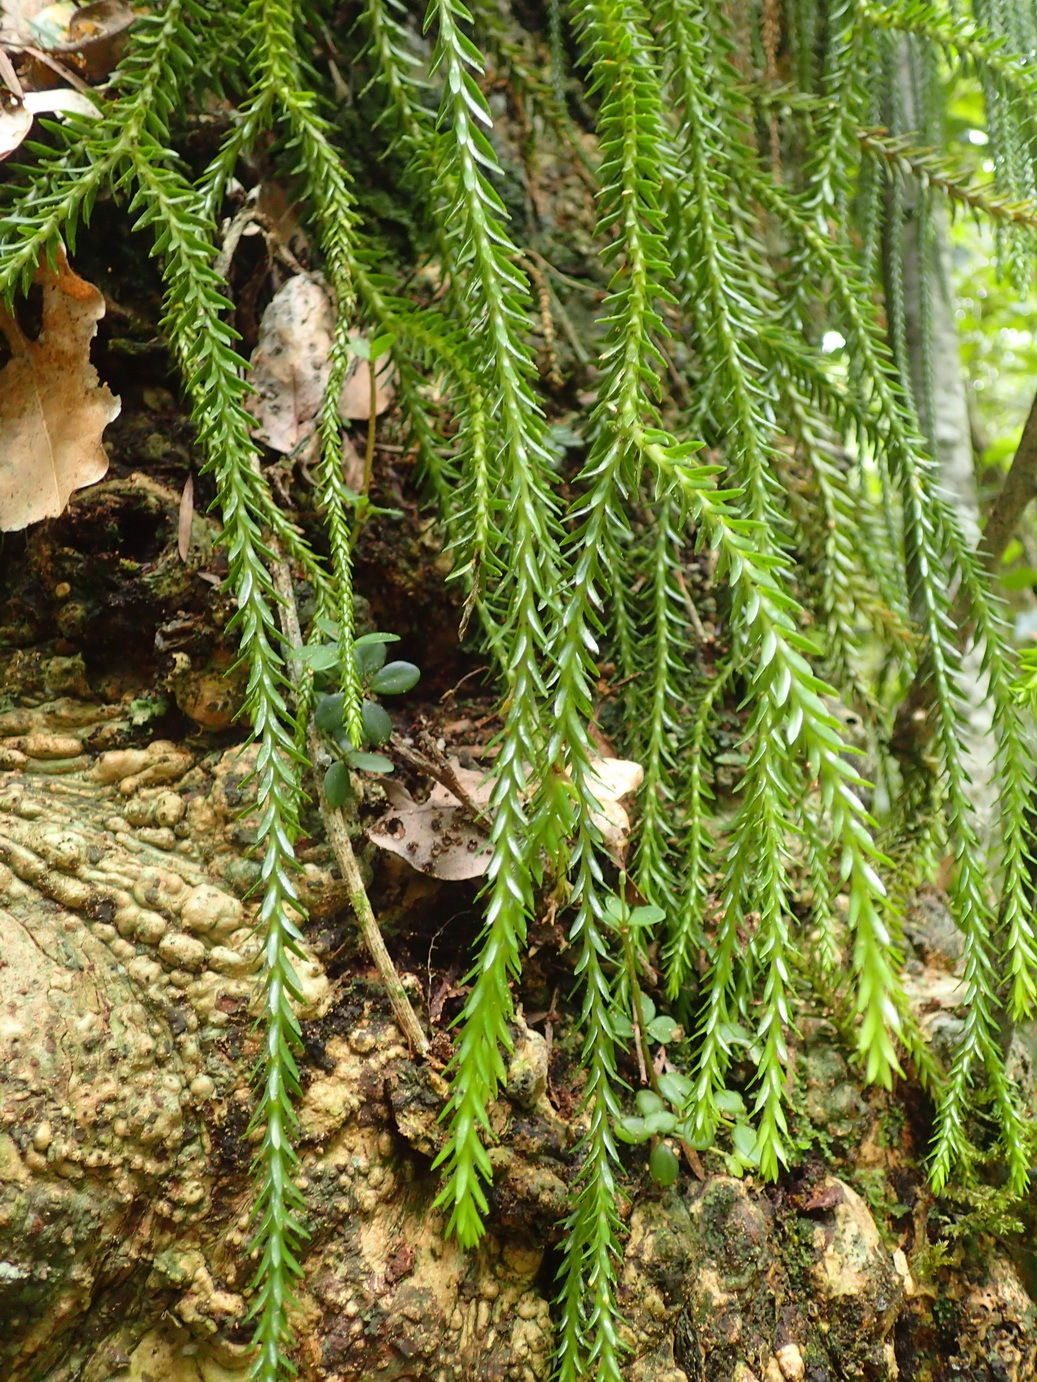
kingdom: Plantae
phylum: Tracheophyta
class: Lycopodiopsida
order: Lycopodiales
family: Lycopodiaceae
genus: Phlegmariurus
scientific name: Phlegmariurus gnidioides
